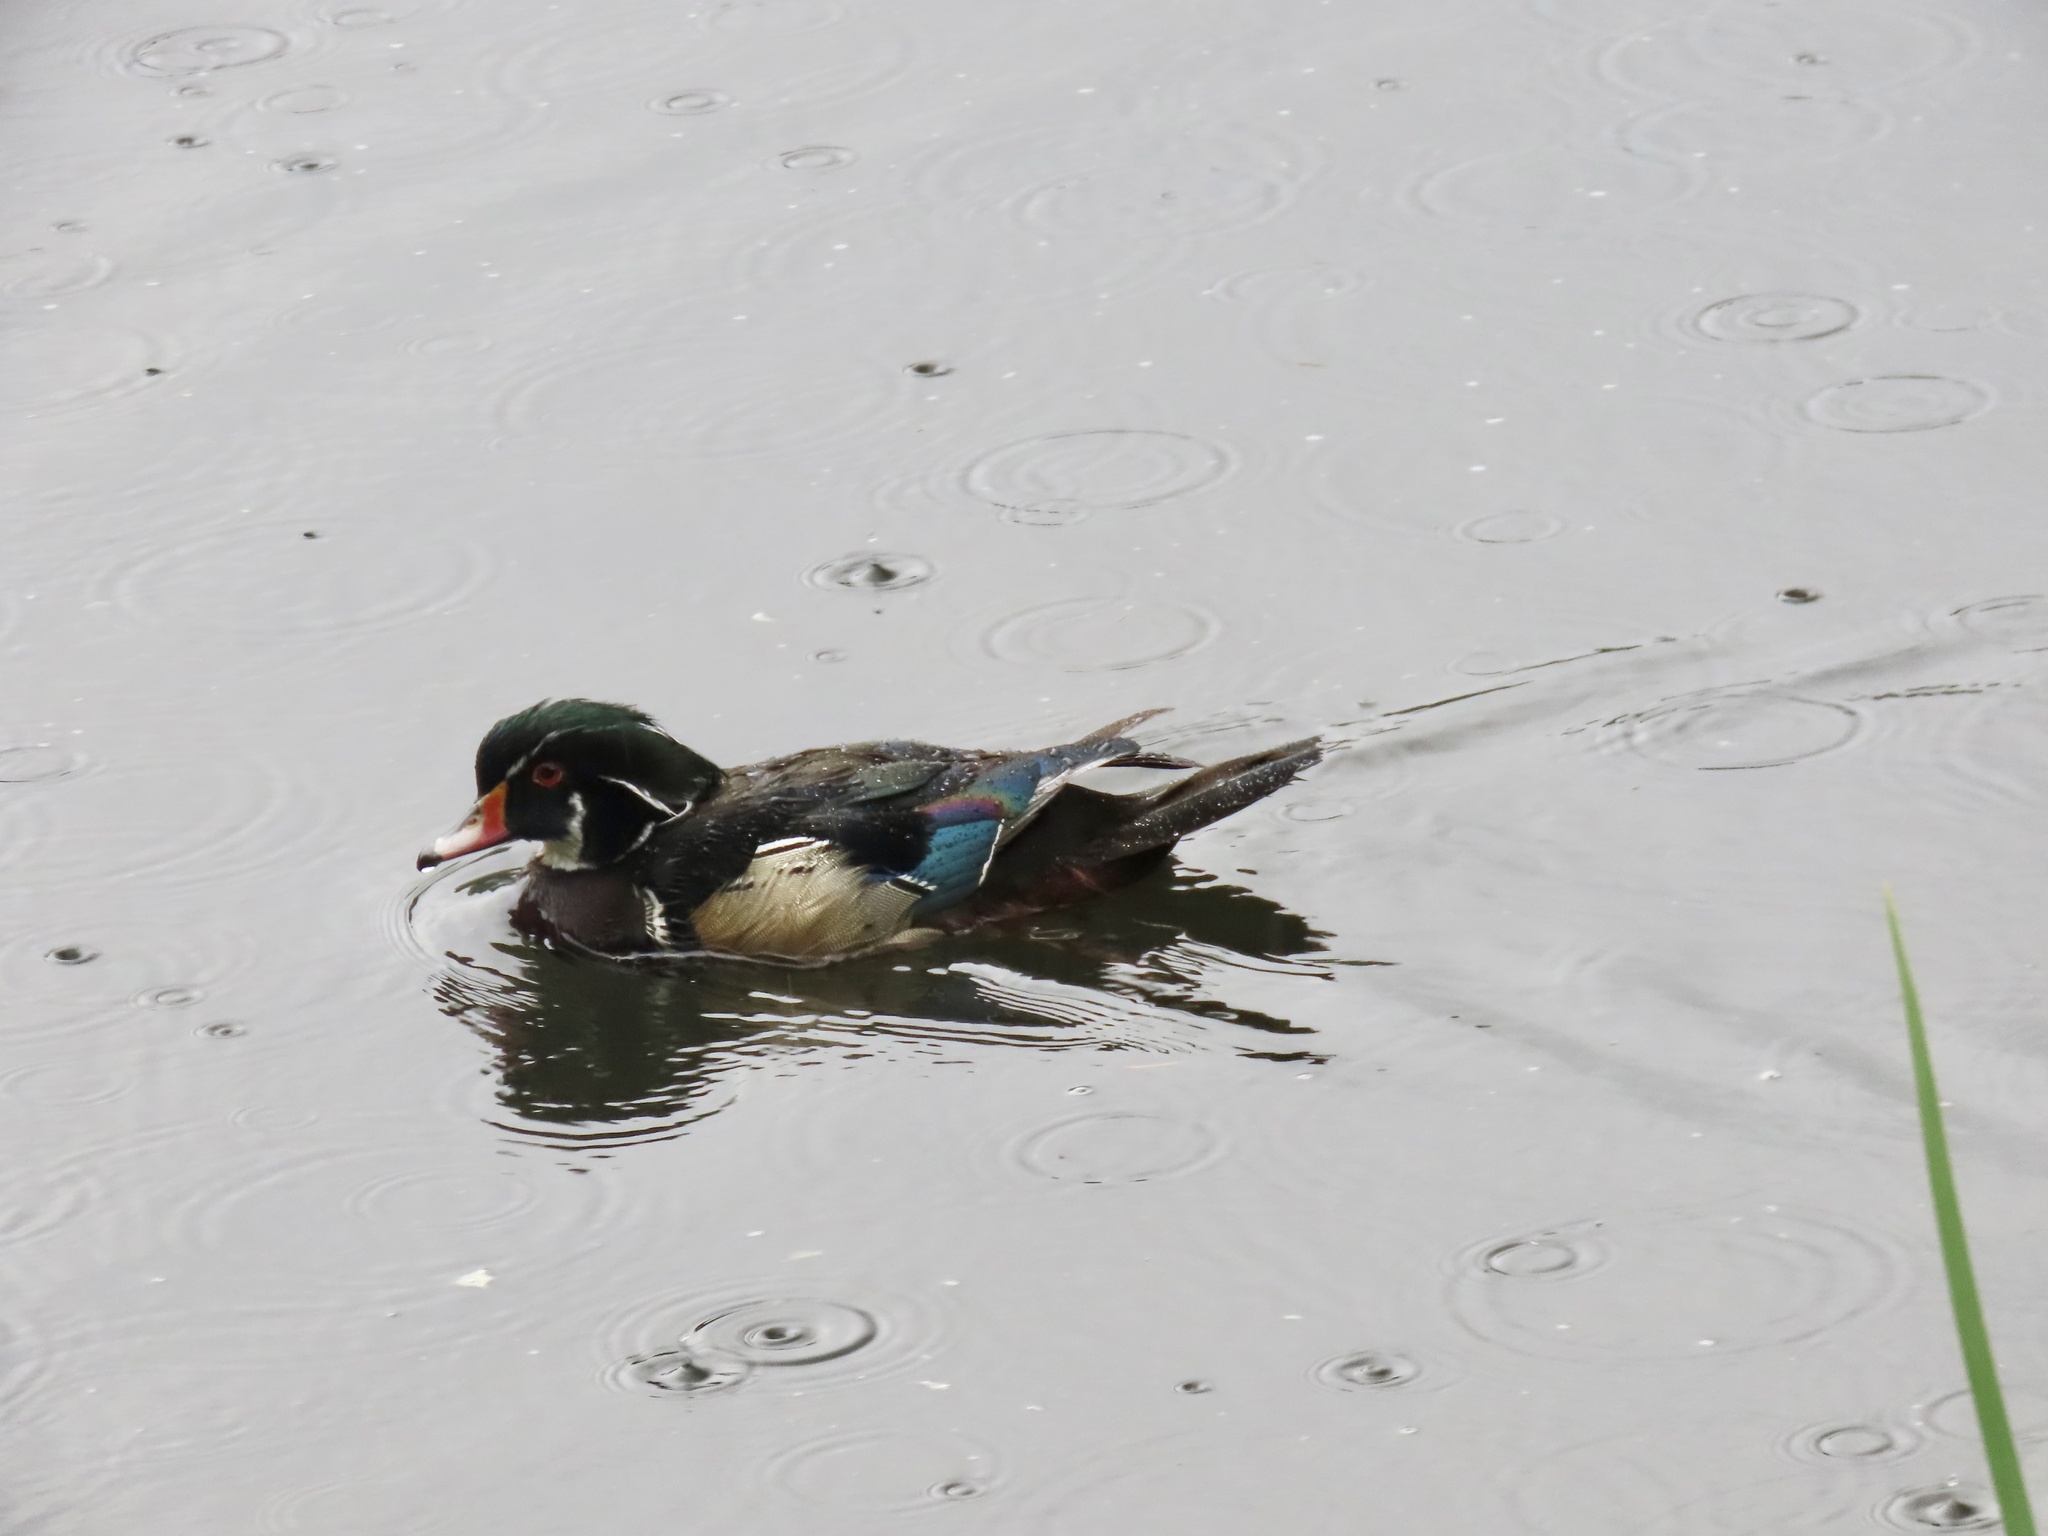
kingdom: Animalia
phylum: Chordata
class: Aves
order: Anseriformes
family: Anatidae
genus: Aix
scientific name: Aix sponsa
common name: Wood duck
